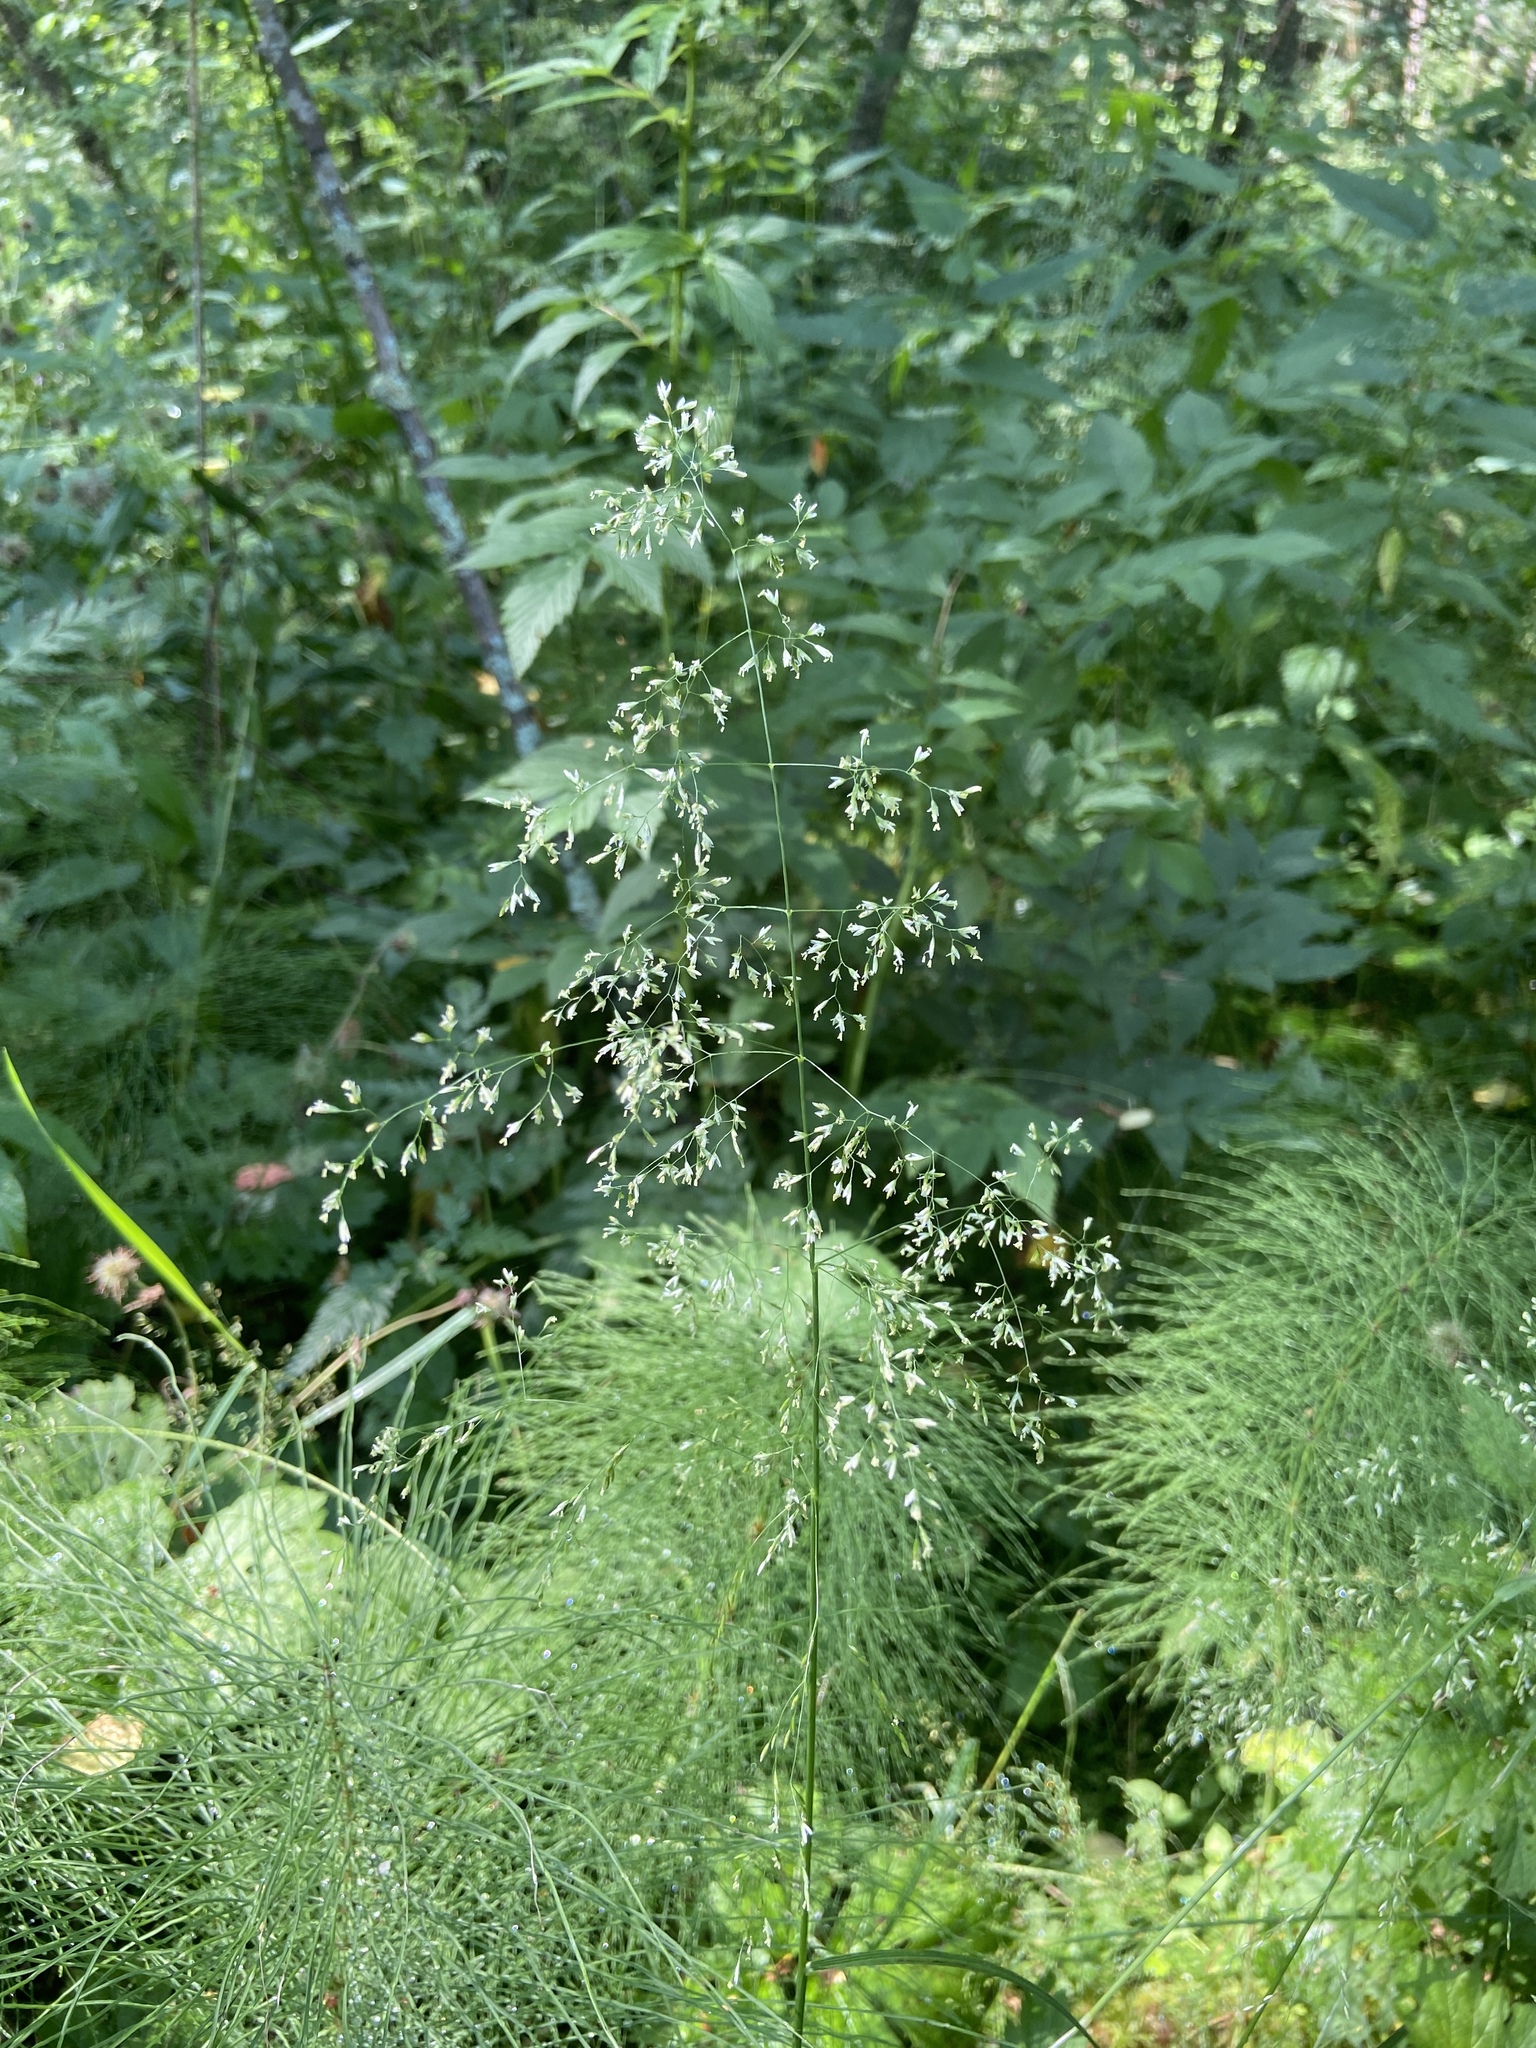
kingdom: Plantae
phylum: Tracheophyta
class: Liliopsida
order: Poales
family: Poaceae
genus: Deschampsia
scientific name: Deschampsia cespitosa
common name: Tufted hair-grass
